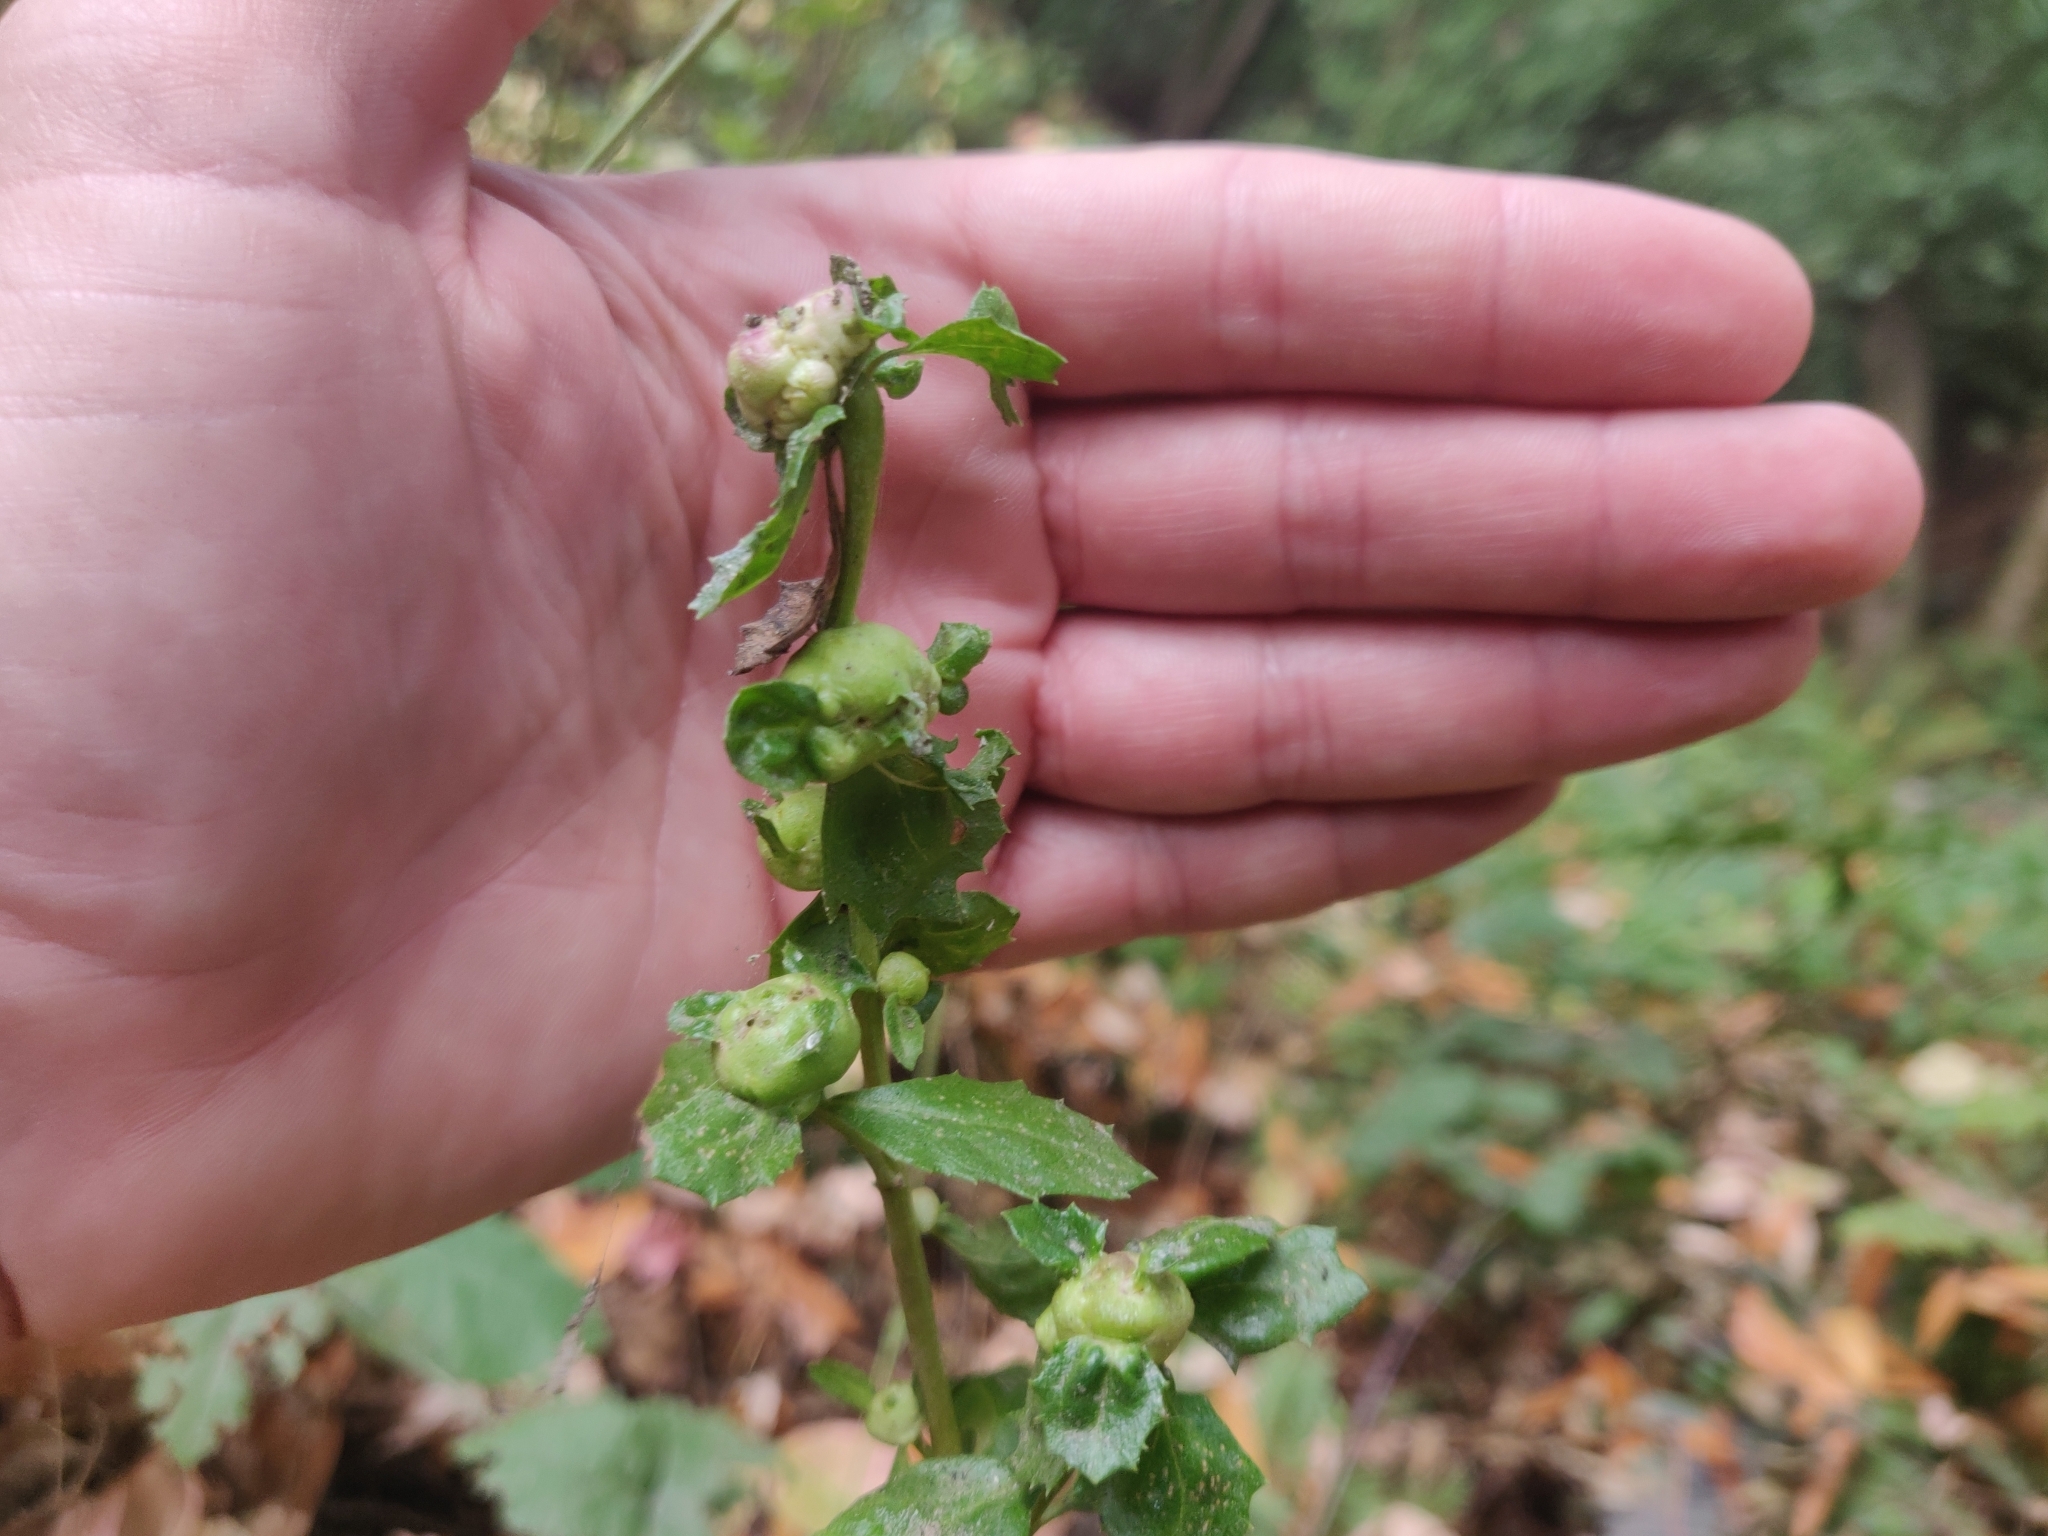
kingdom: Animalia
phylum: Arthropoda
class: Insecta
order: Diptera
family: Cecidomyiidae
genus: Rhopalomyia
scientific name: Rhopalomyia californica
